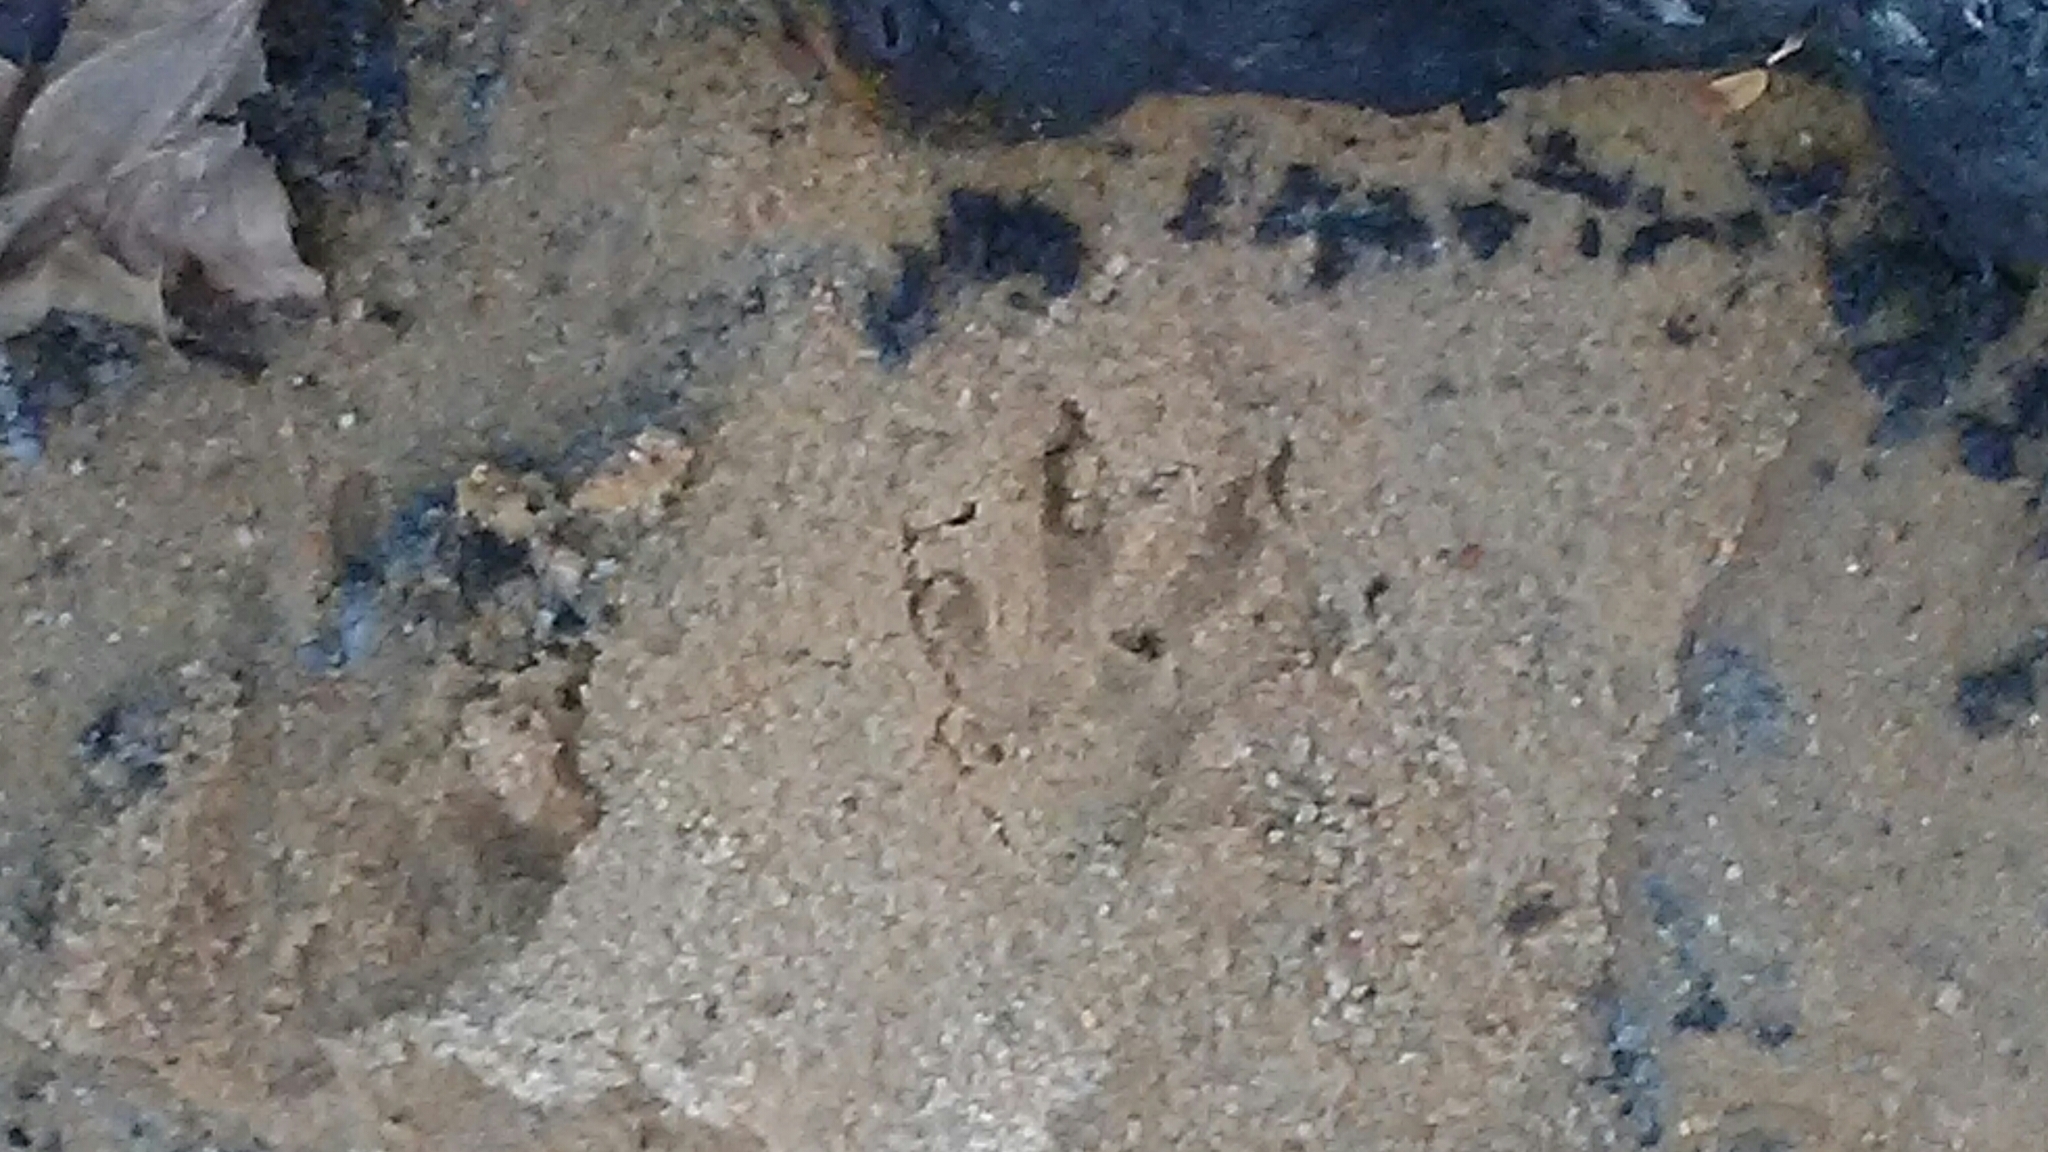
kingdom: Animalia
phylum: Chordata
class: Mammalia
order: Carnivora
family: Procyonidae
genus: Procyon
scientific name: Procyon lotor
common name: Raccoon
